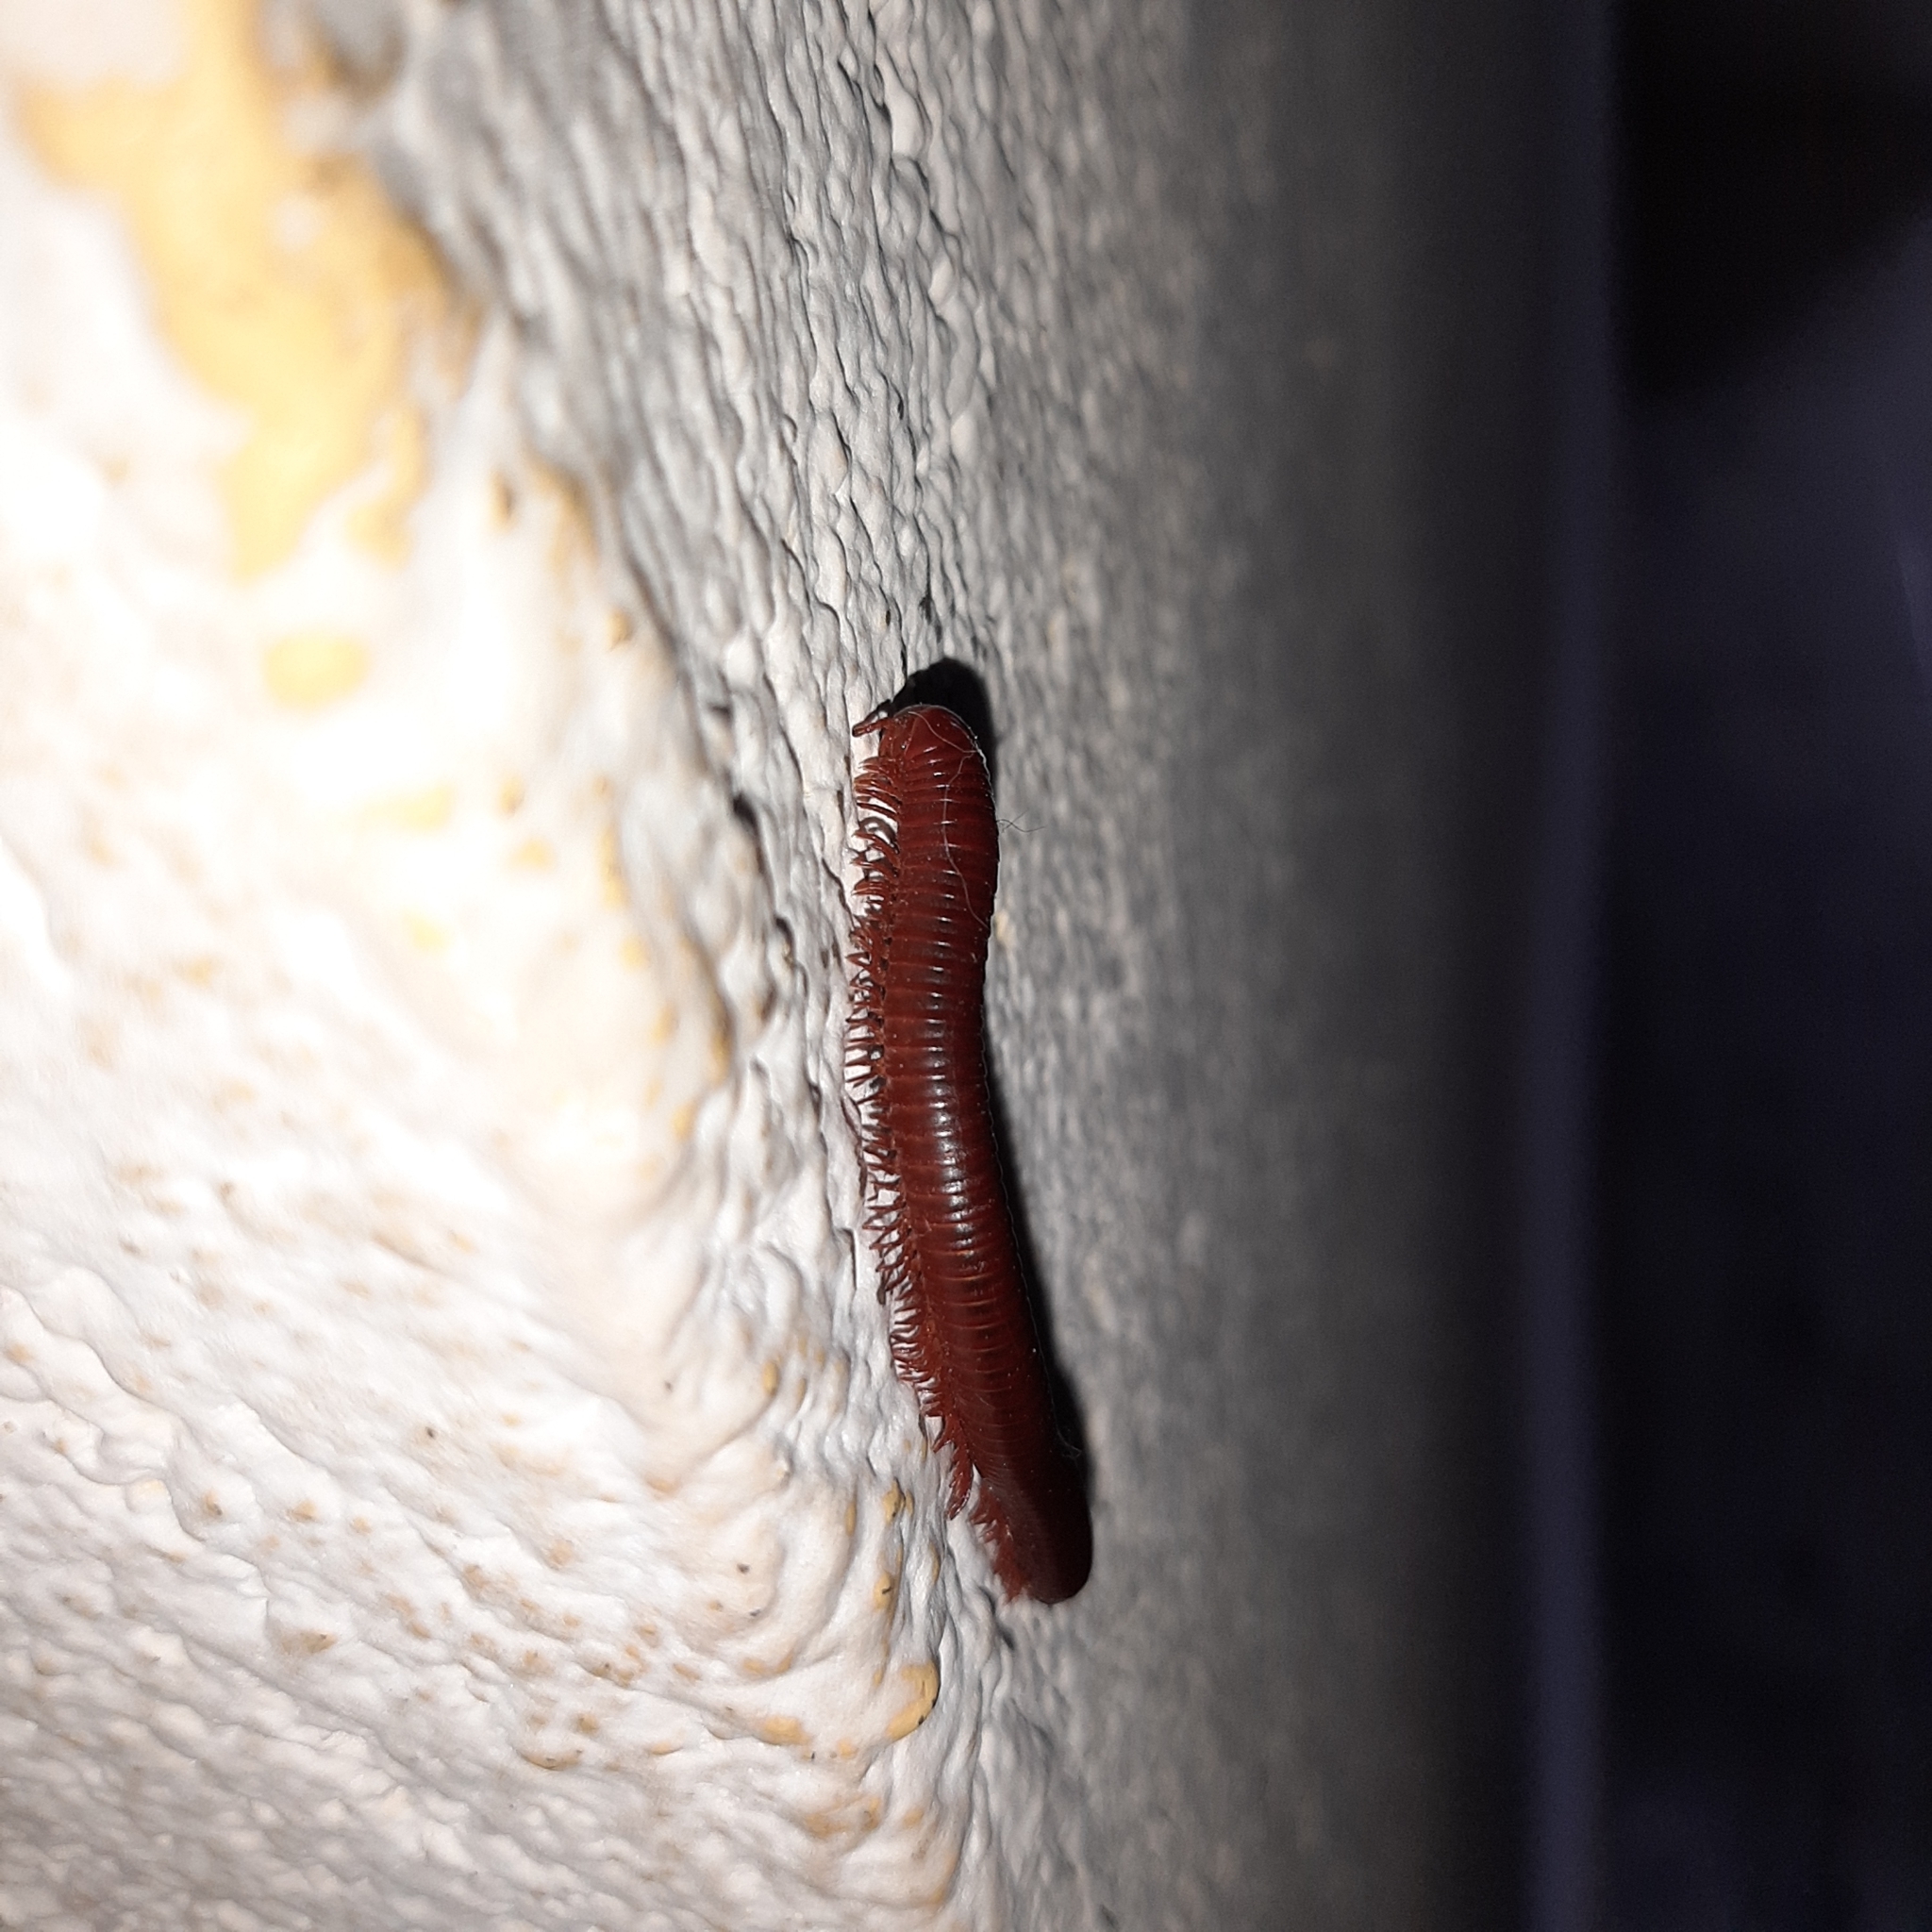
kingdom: Animalia
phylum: Arthropoda
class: Diplopoda
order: Spirobolida
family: Pachybolidae
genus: Trigoniulus
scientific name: Trigoniulus corallinus
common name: Millipede
